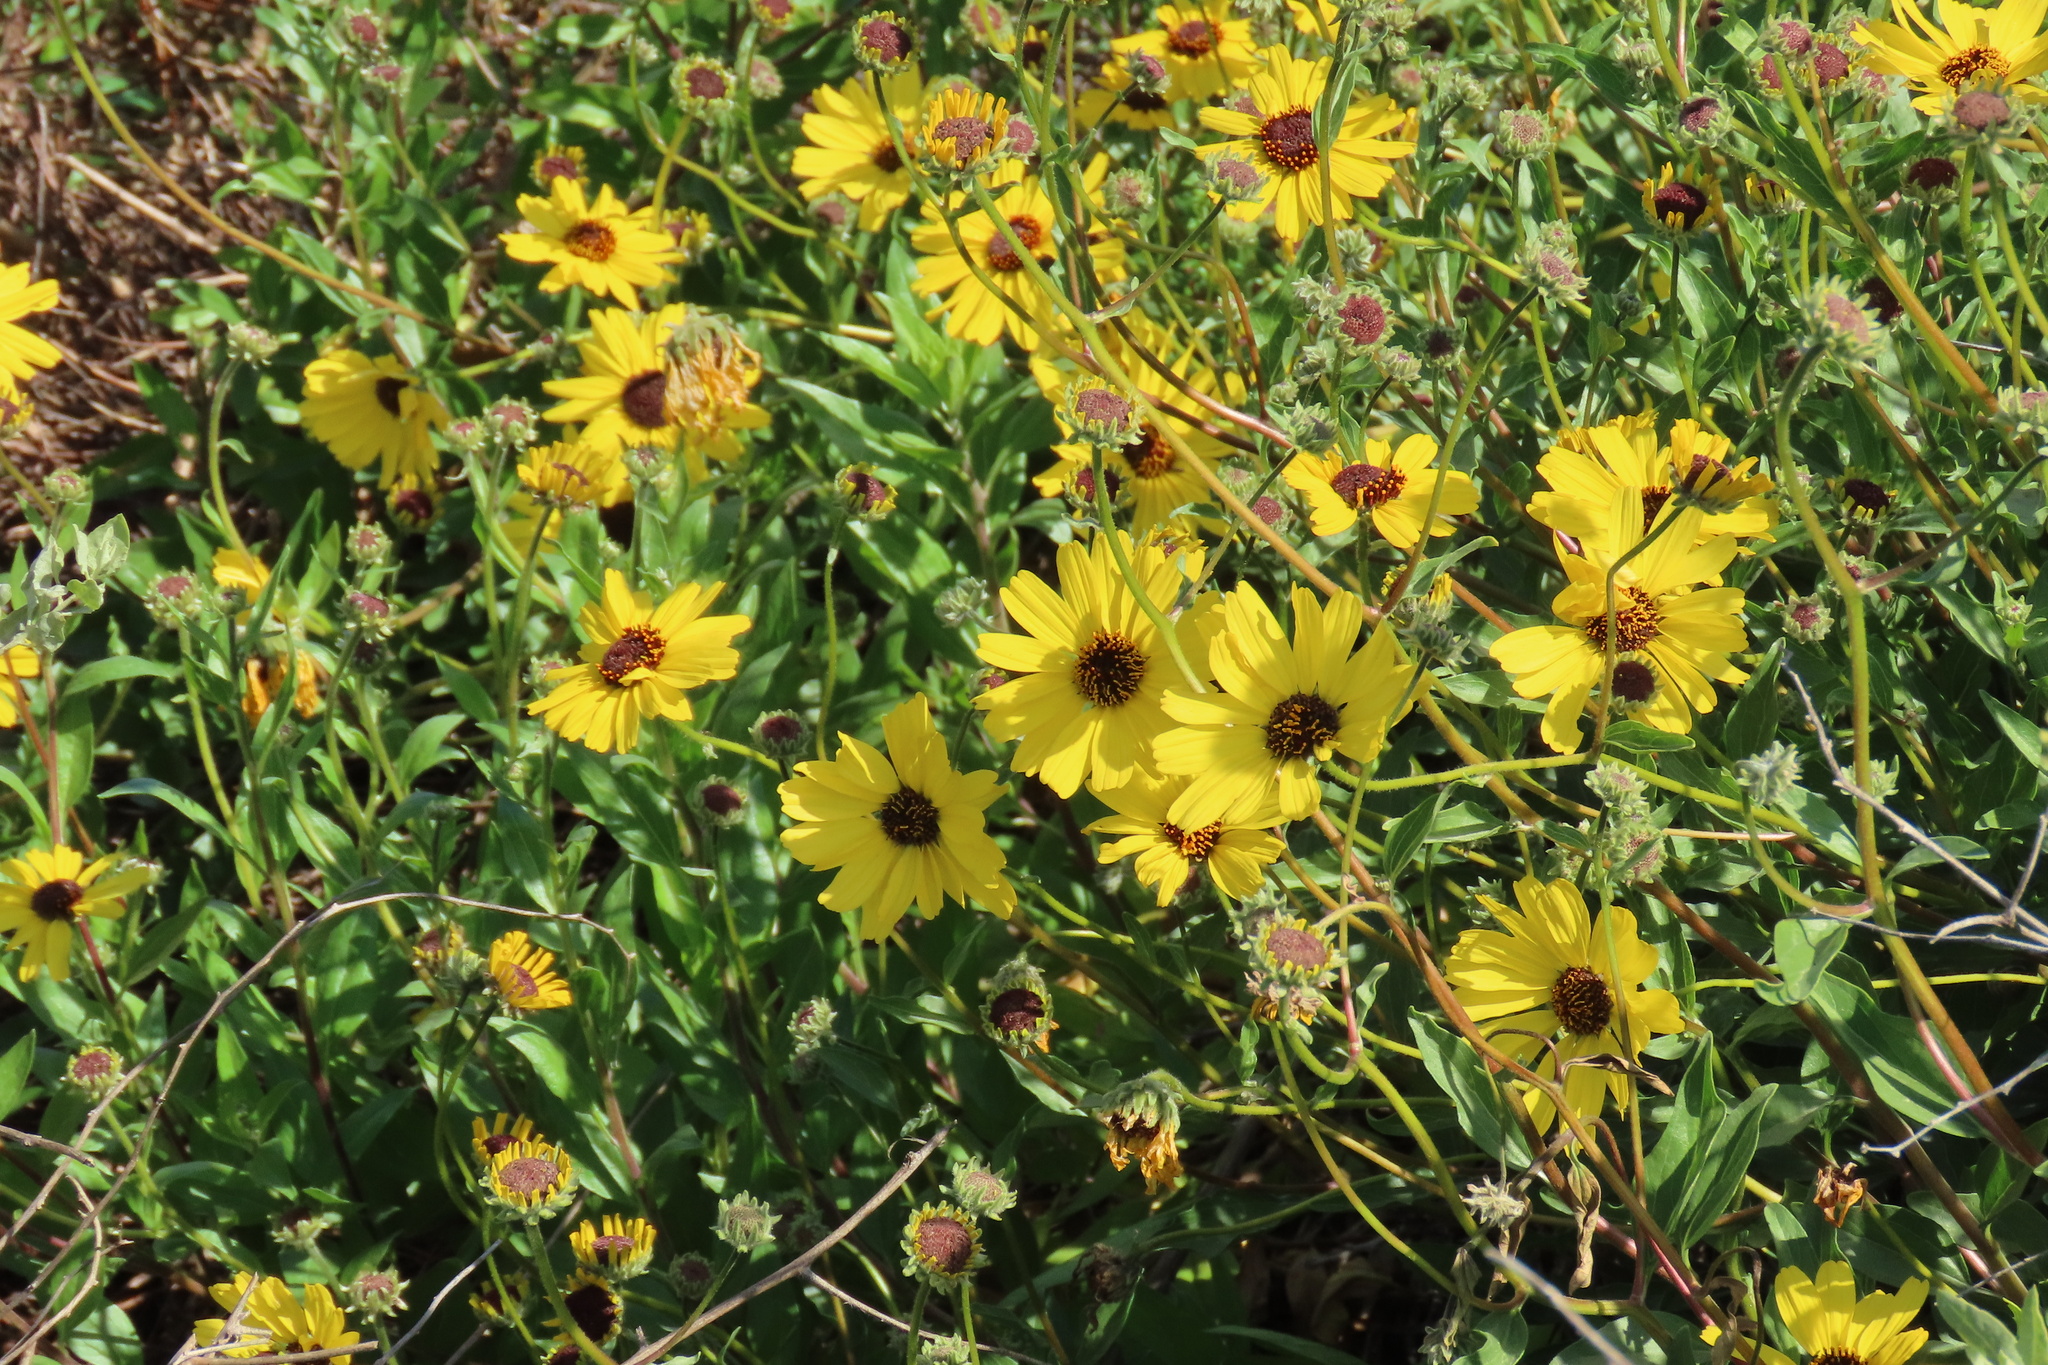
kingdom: Plantae
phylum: Tracheophyta
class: Magnoliopsida
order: Asterales
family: Asteraceae
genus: Encelia
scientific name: Encelia californica
